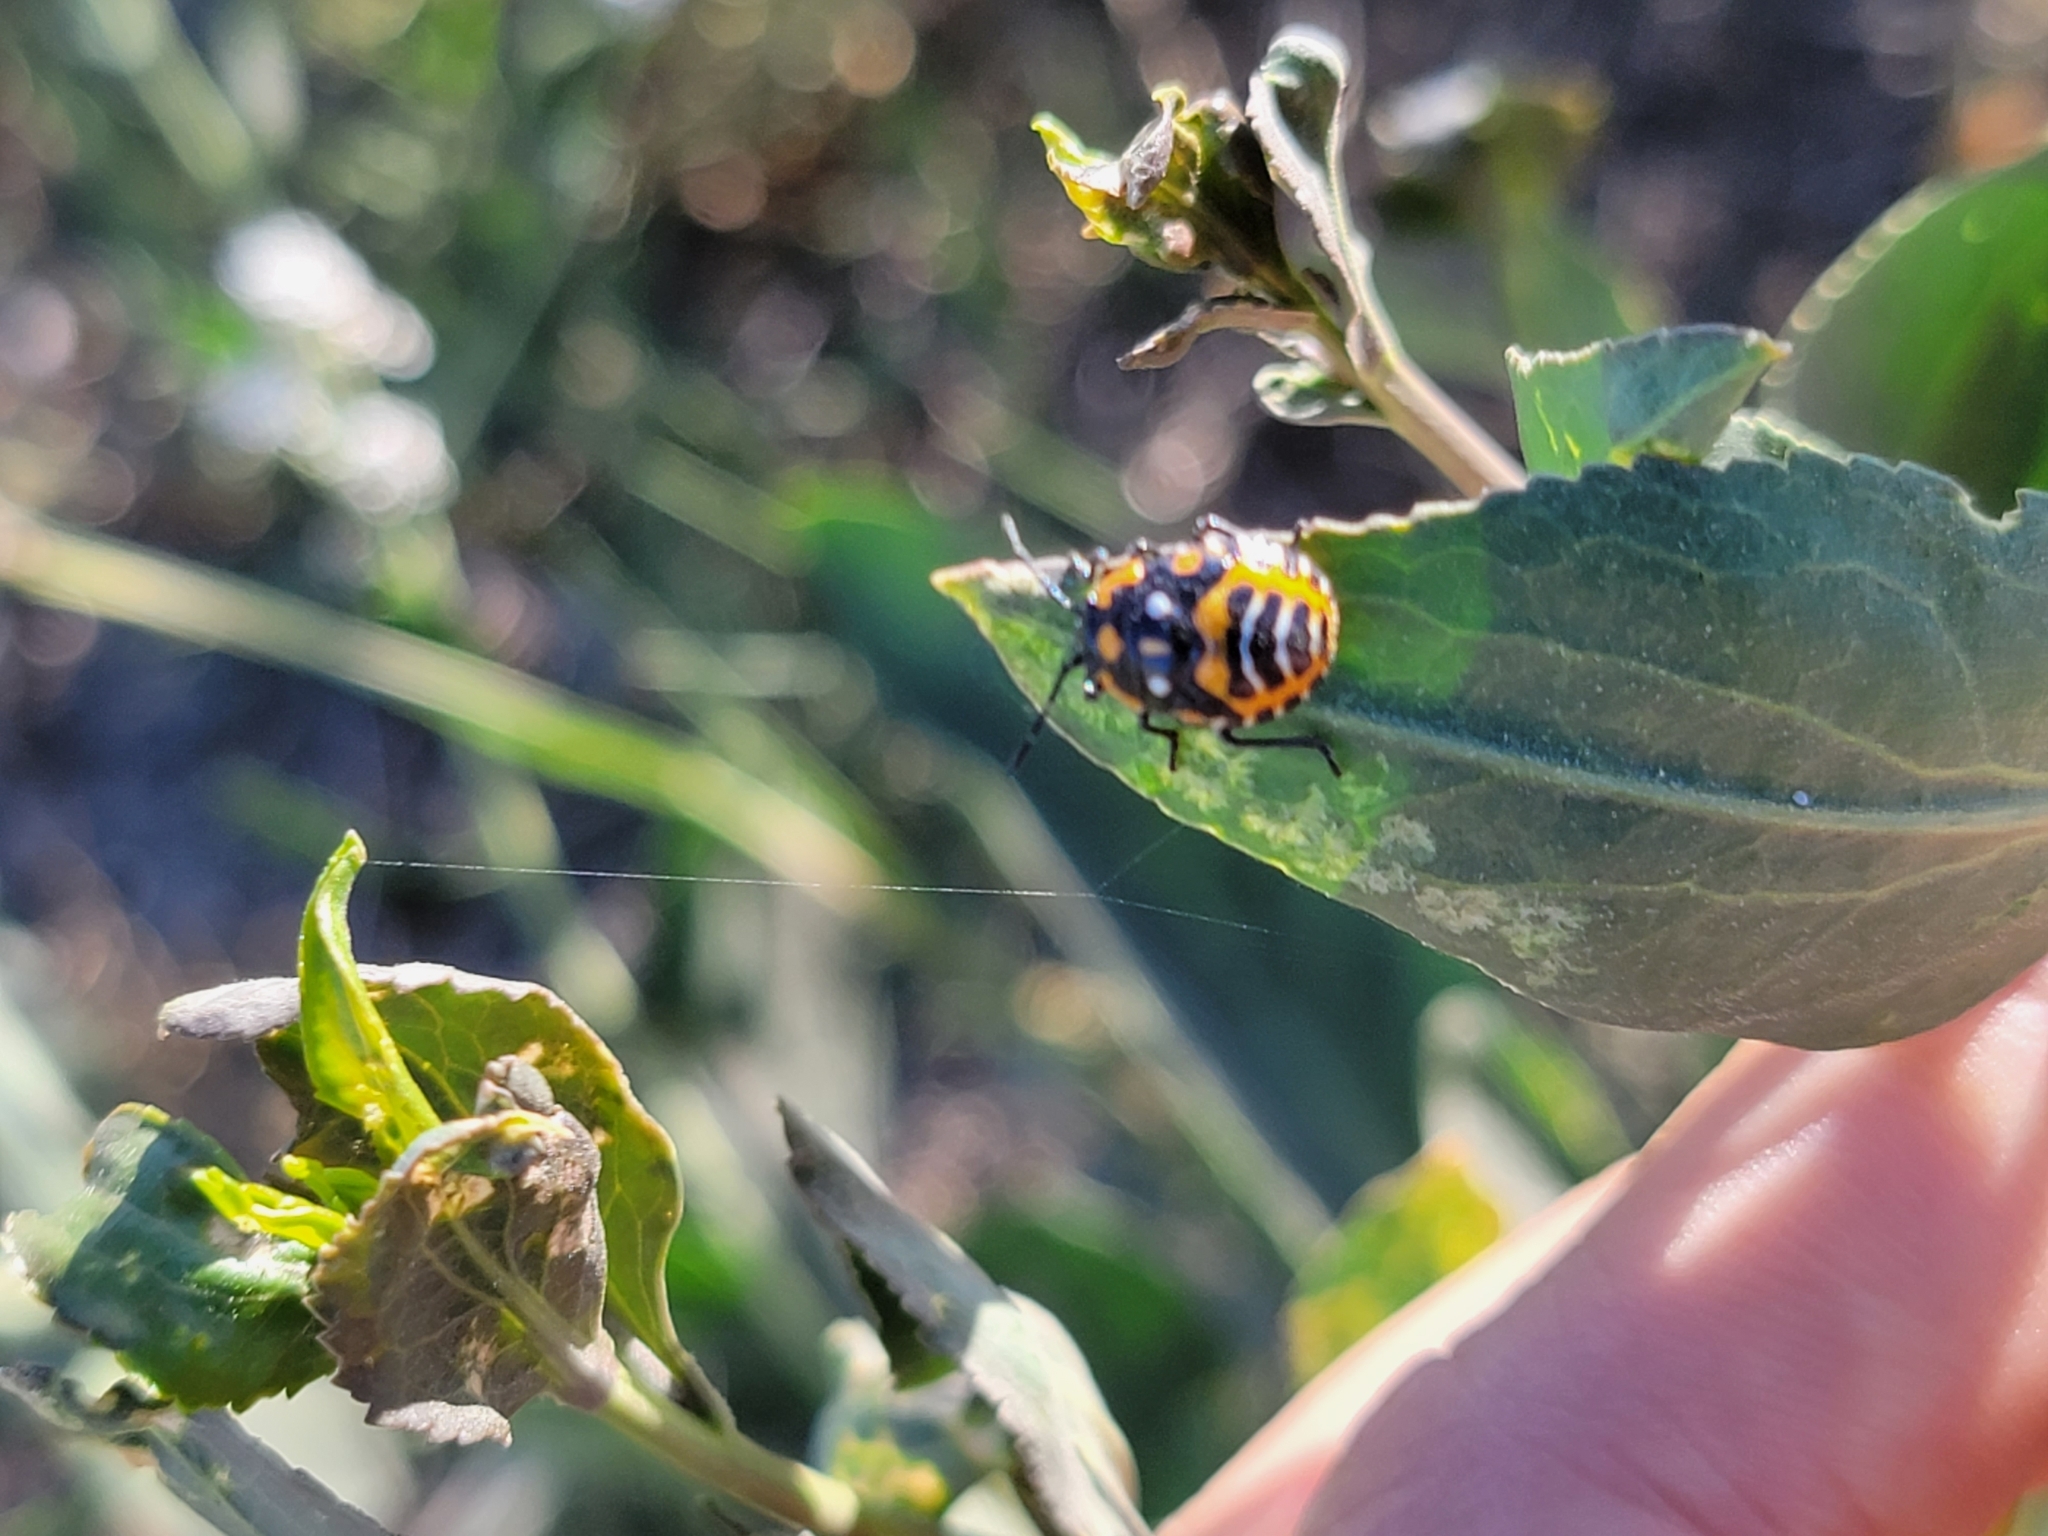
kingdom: Animalia
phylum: Arthropoda
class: Insecta
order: Hemiptera
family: Pentatomidae
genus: Murgantia
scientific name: Murgantia histrionica
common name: Harlequin bug
